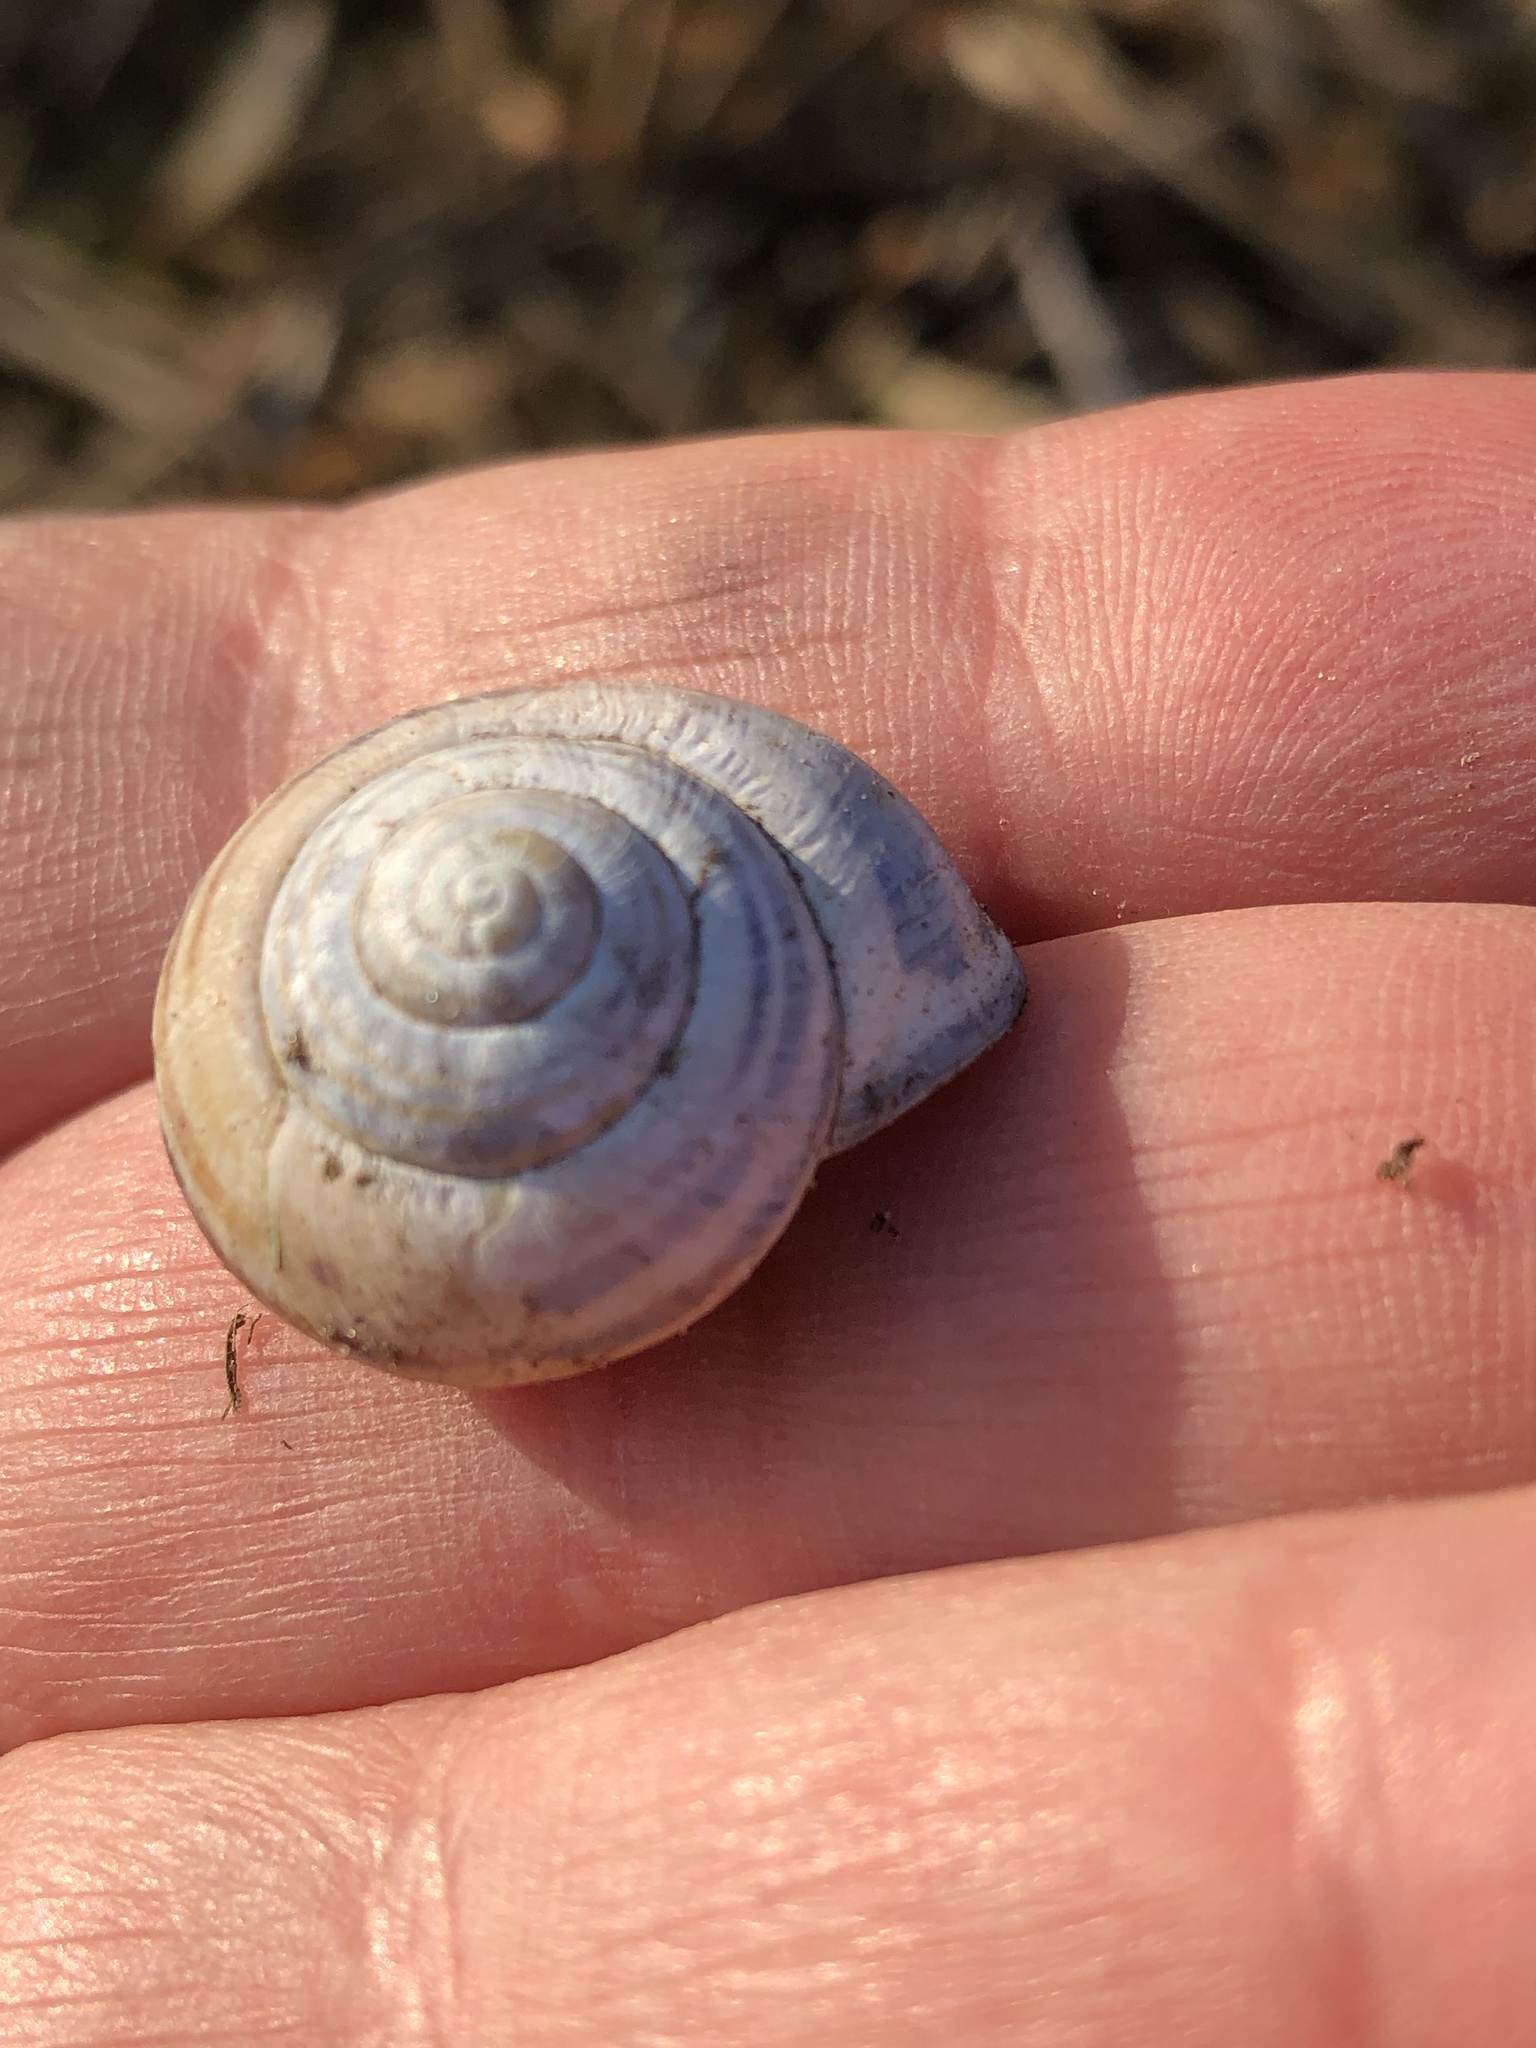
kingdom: Animalia
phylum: Mollusca
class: Gastropoda
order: Stylommatophora
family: Helicidae
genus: Cepaea
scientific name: Cepaea nemoralis
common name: Grovesnail
